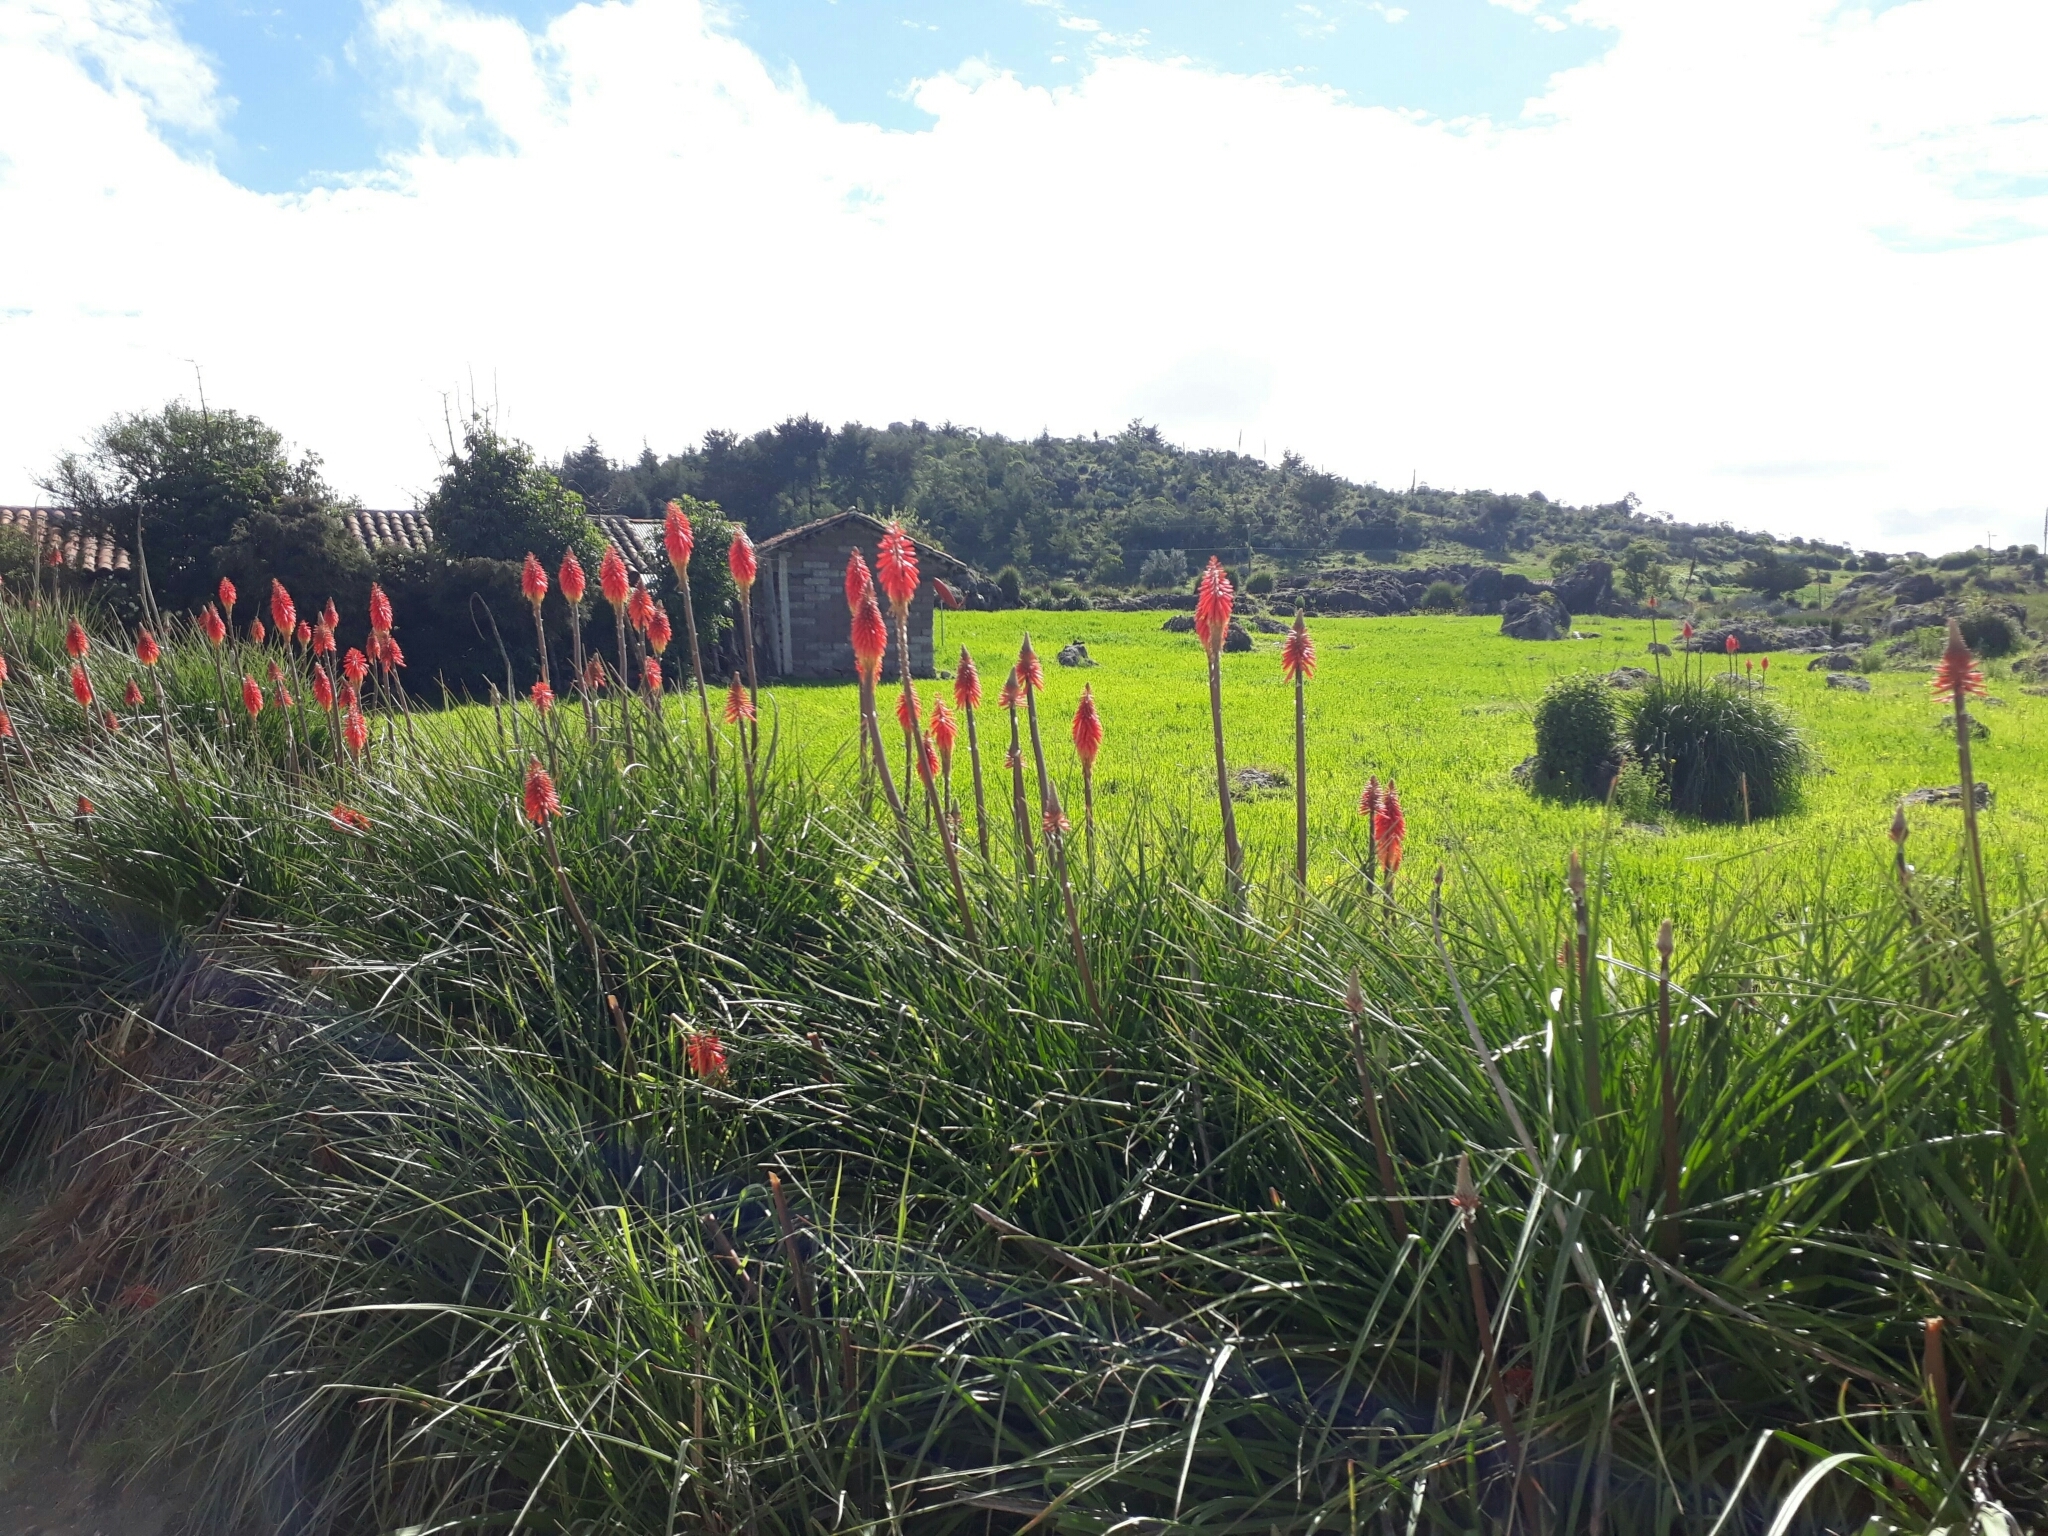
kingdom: Plantae
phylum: Tracheophyta
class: Liliopsida
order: Asparagales
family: Asphodelaceae
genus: Kniphofia
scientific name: Kniphofia uvaria
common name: Red-hot-poker
